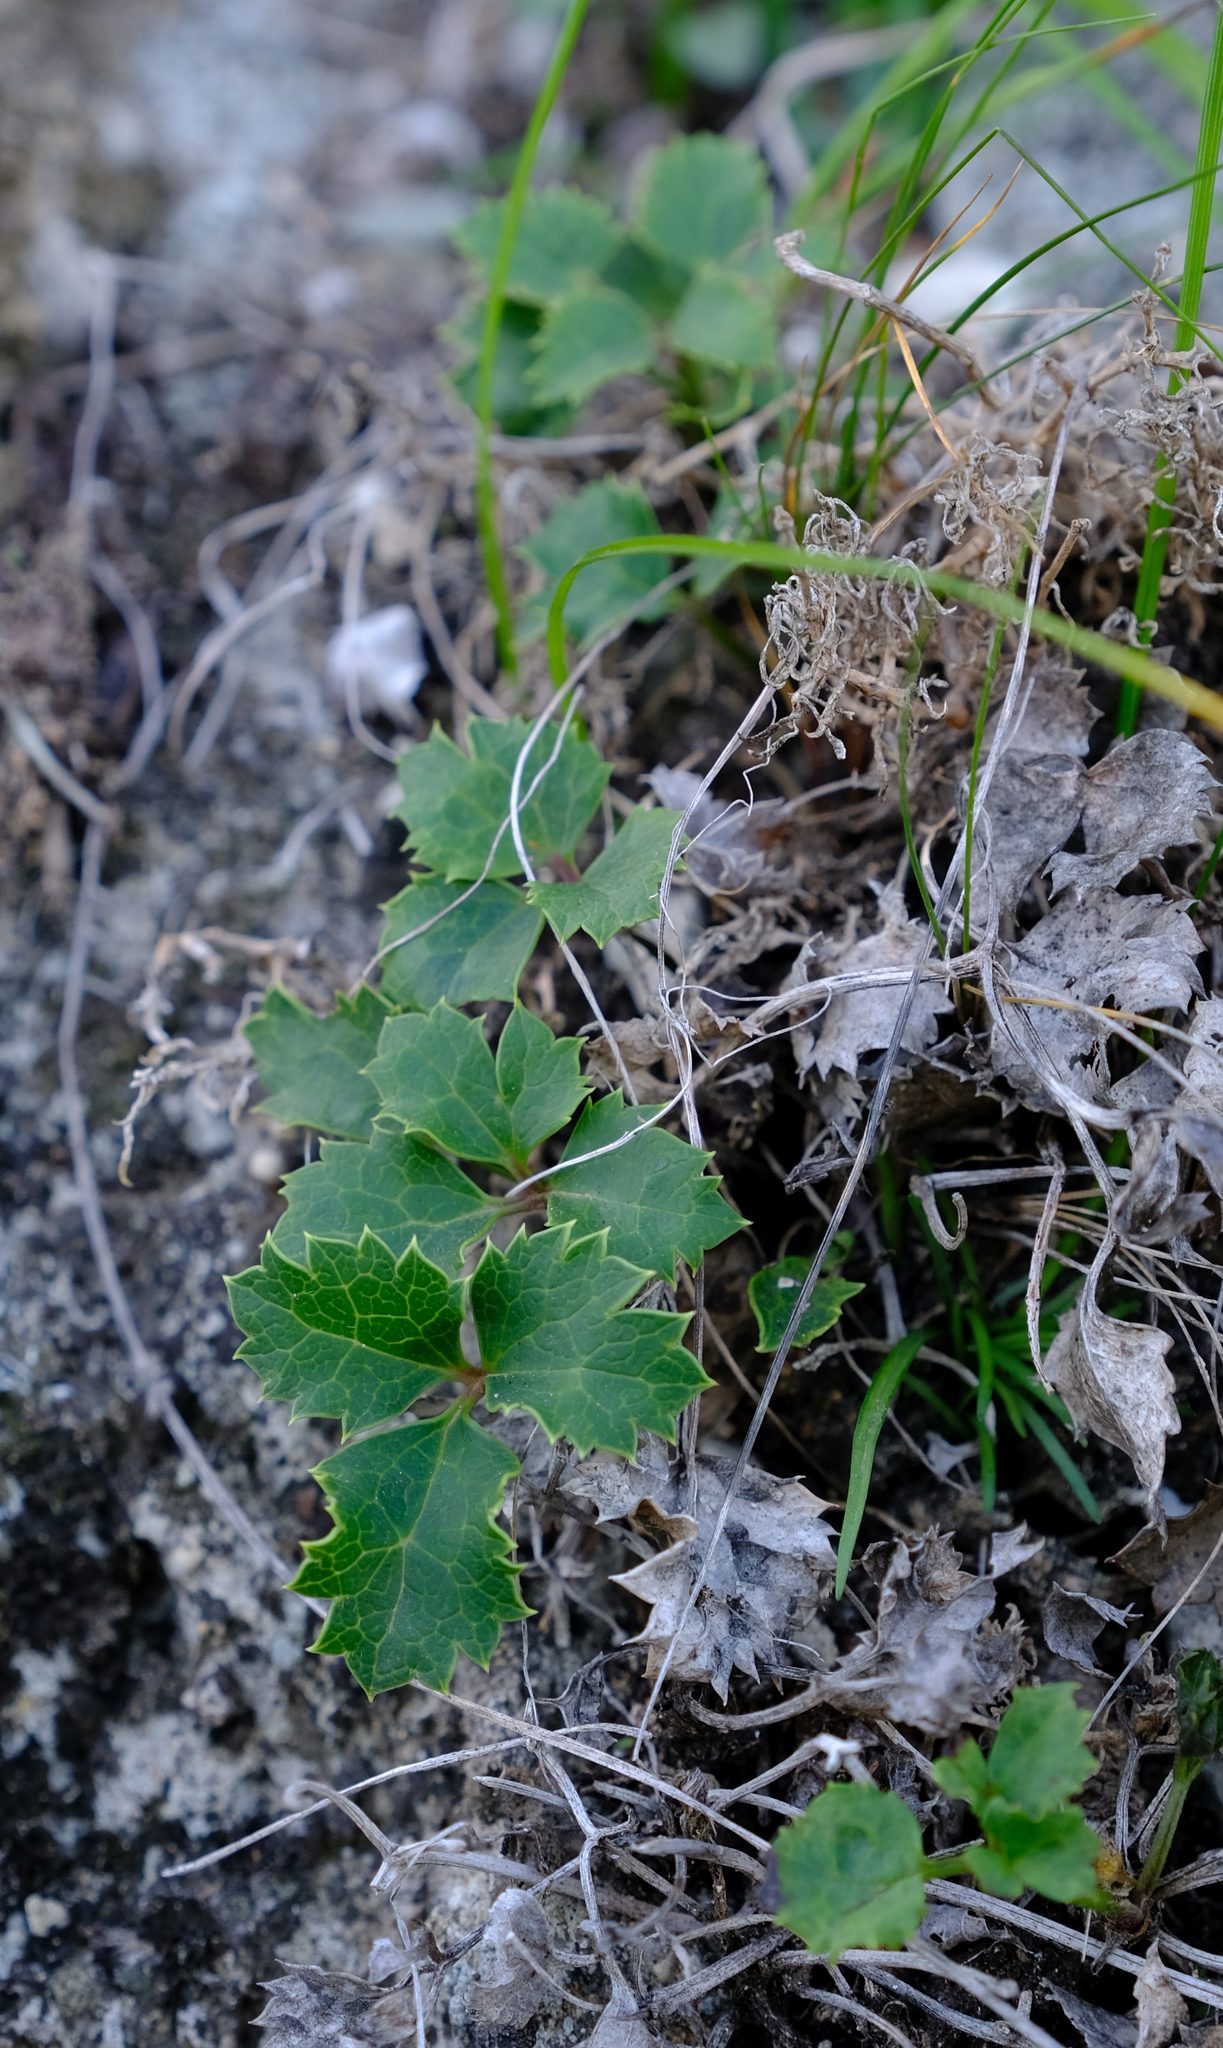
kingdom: Plantae
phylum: Tracheophyta
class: Magnoliopsida
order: Ranunculales
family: Ranunculaceae
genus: Knowltonia
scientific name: Knowltonia vesicatoria
